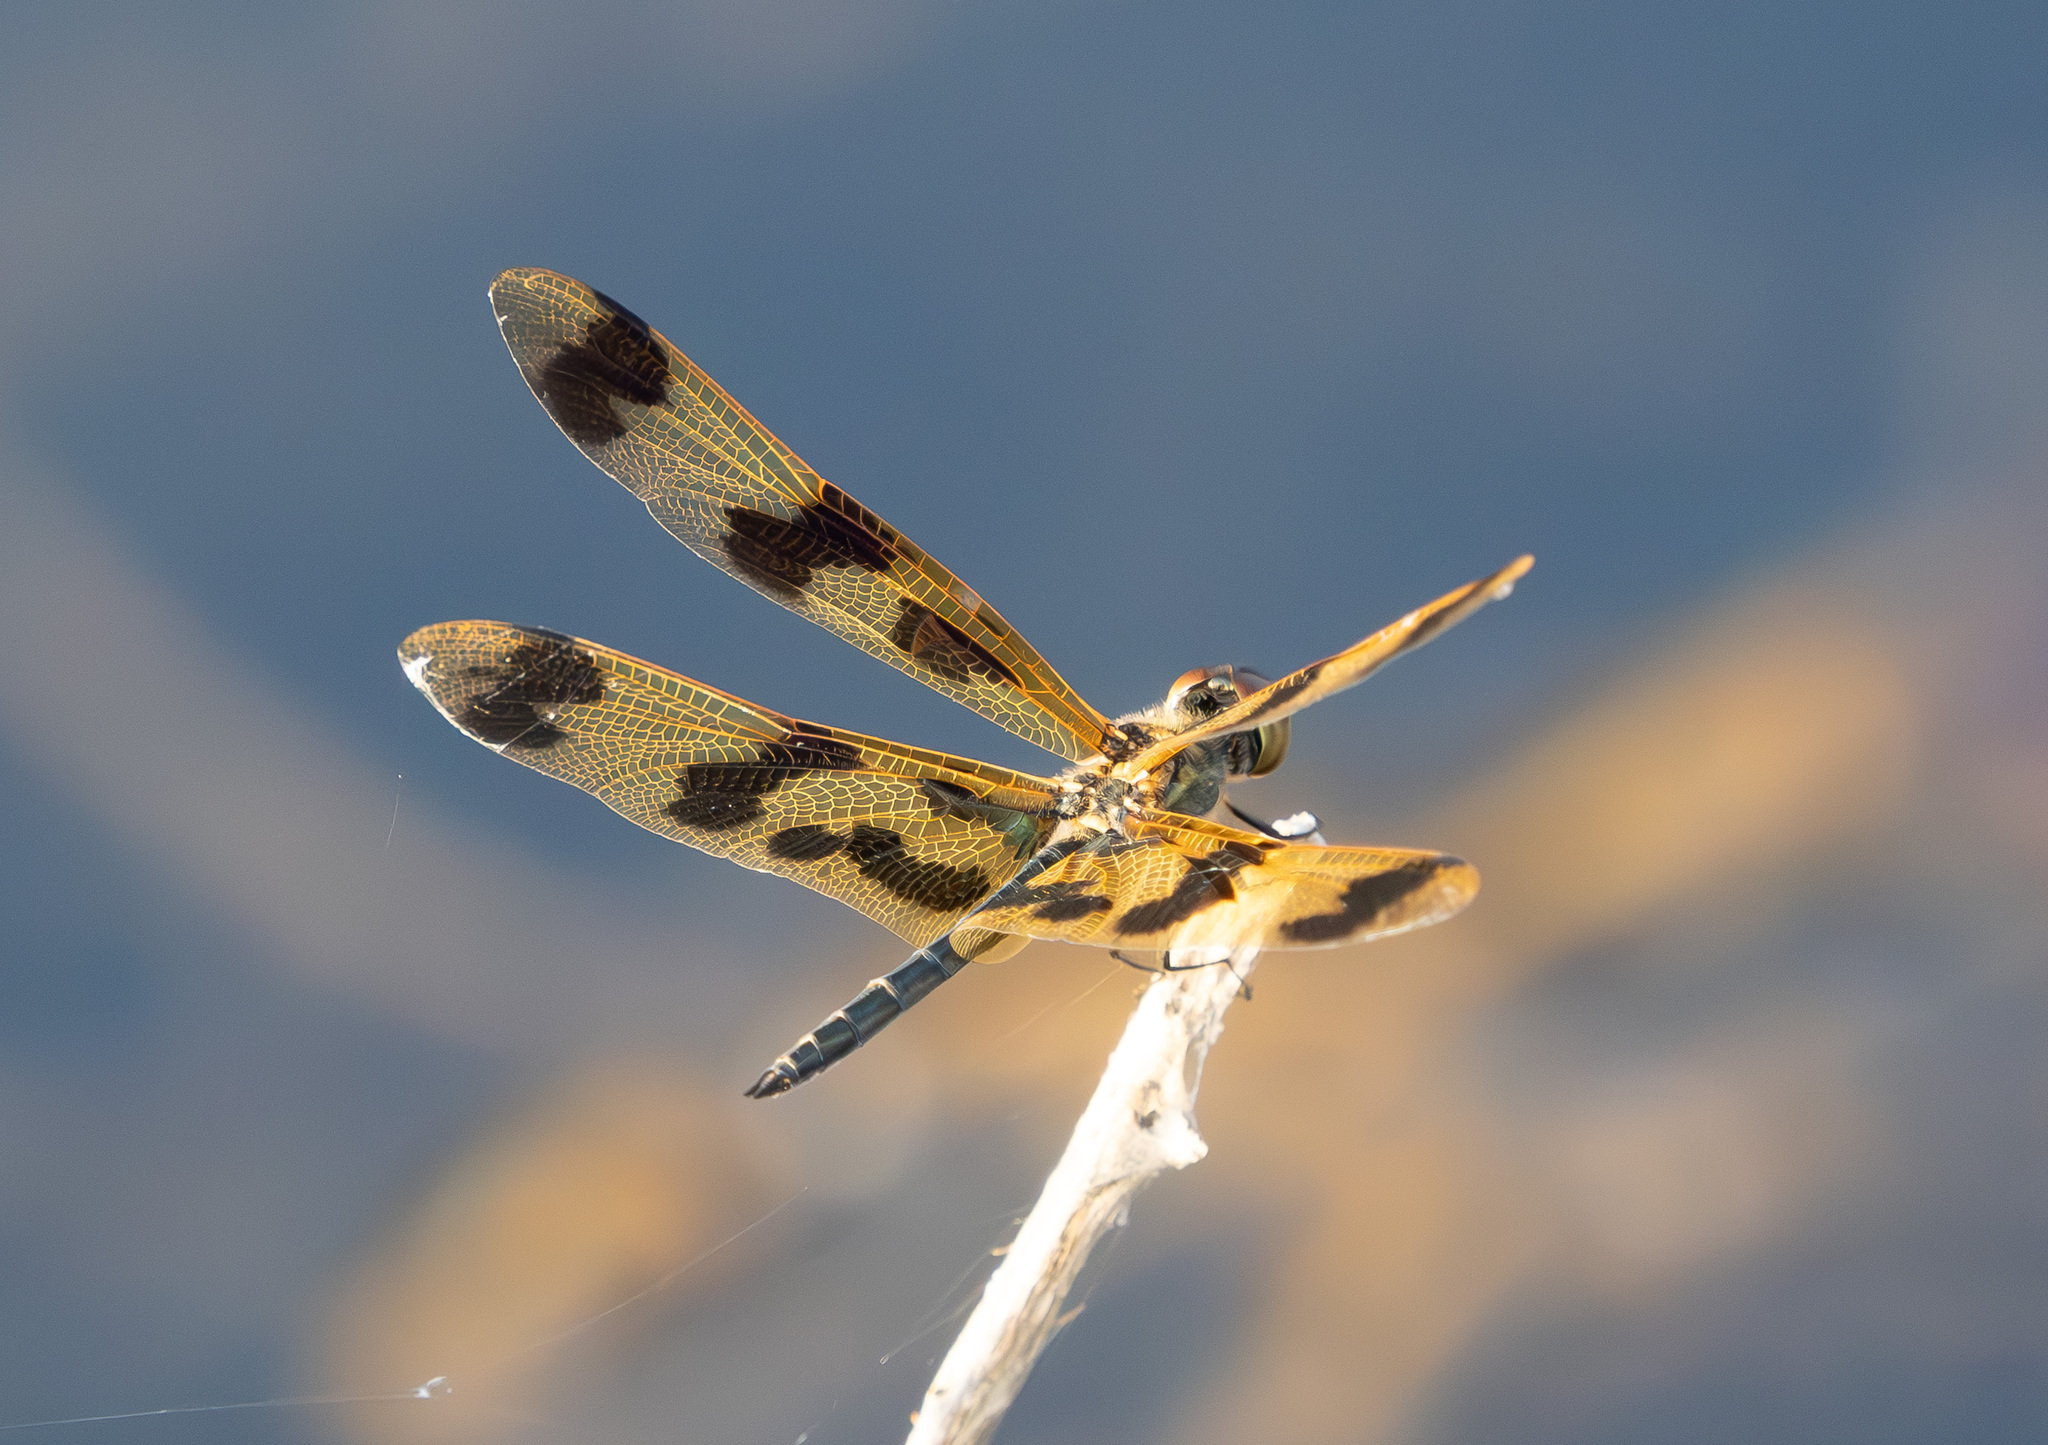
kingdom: Animalia
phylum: Arthropoda
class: Insecta
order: Odonata
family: Libellulidae
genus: Rhyothemis
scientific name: Rhyothemis graphiptera
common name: Graphic flutterer
